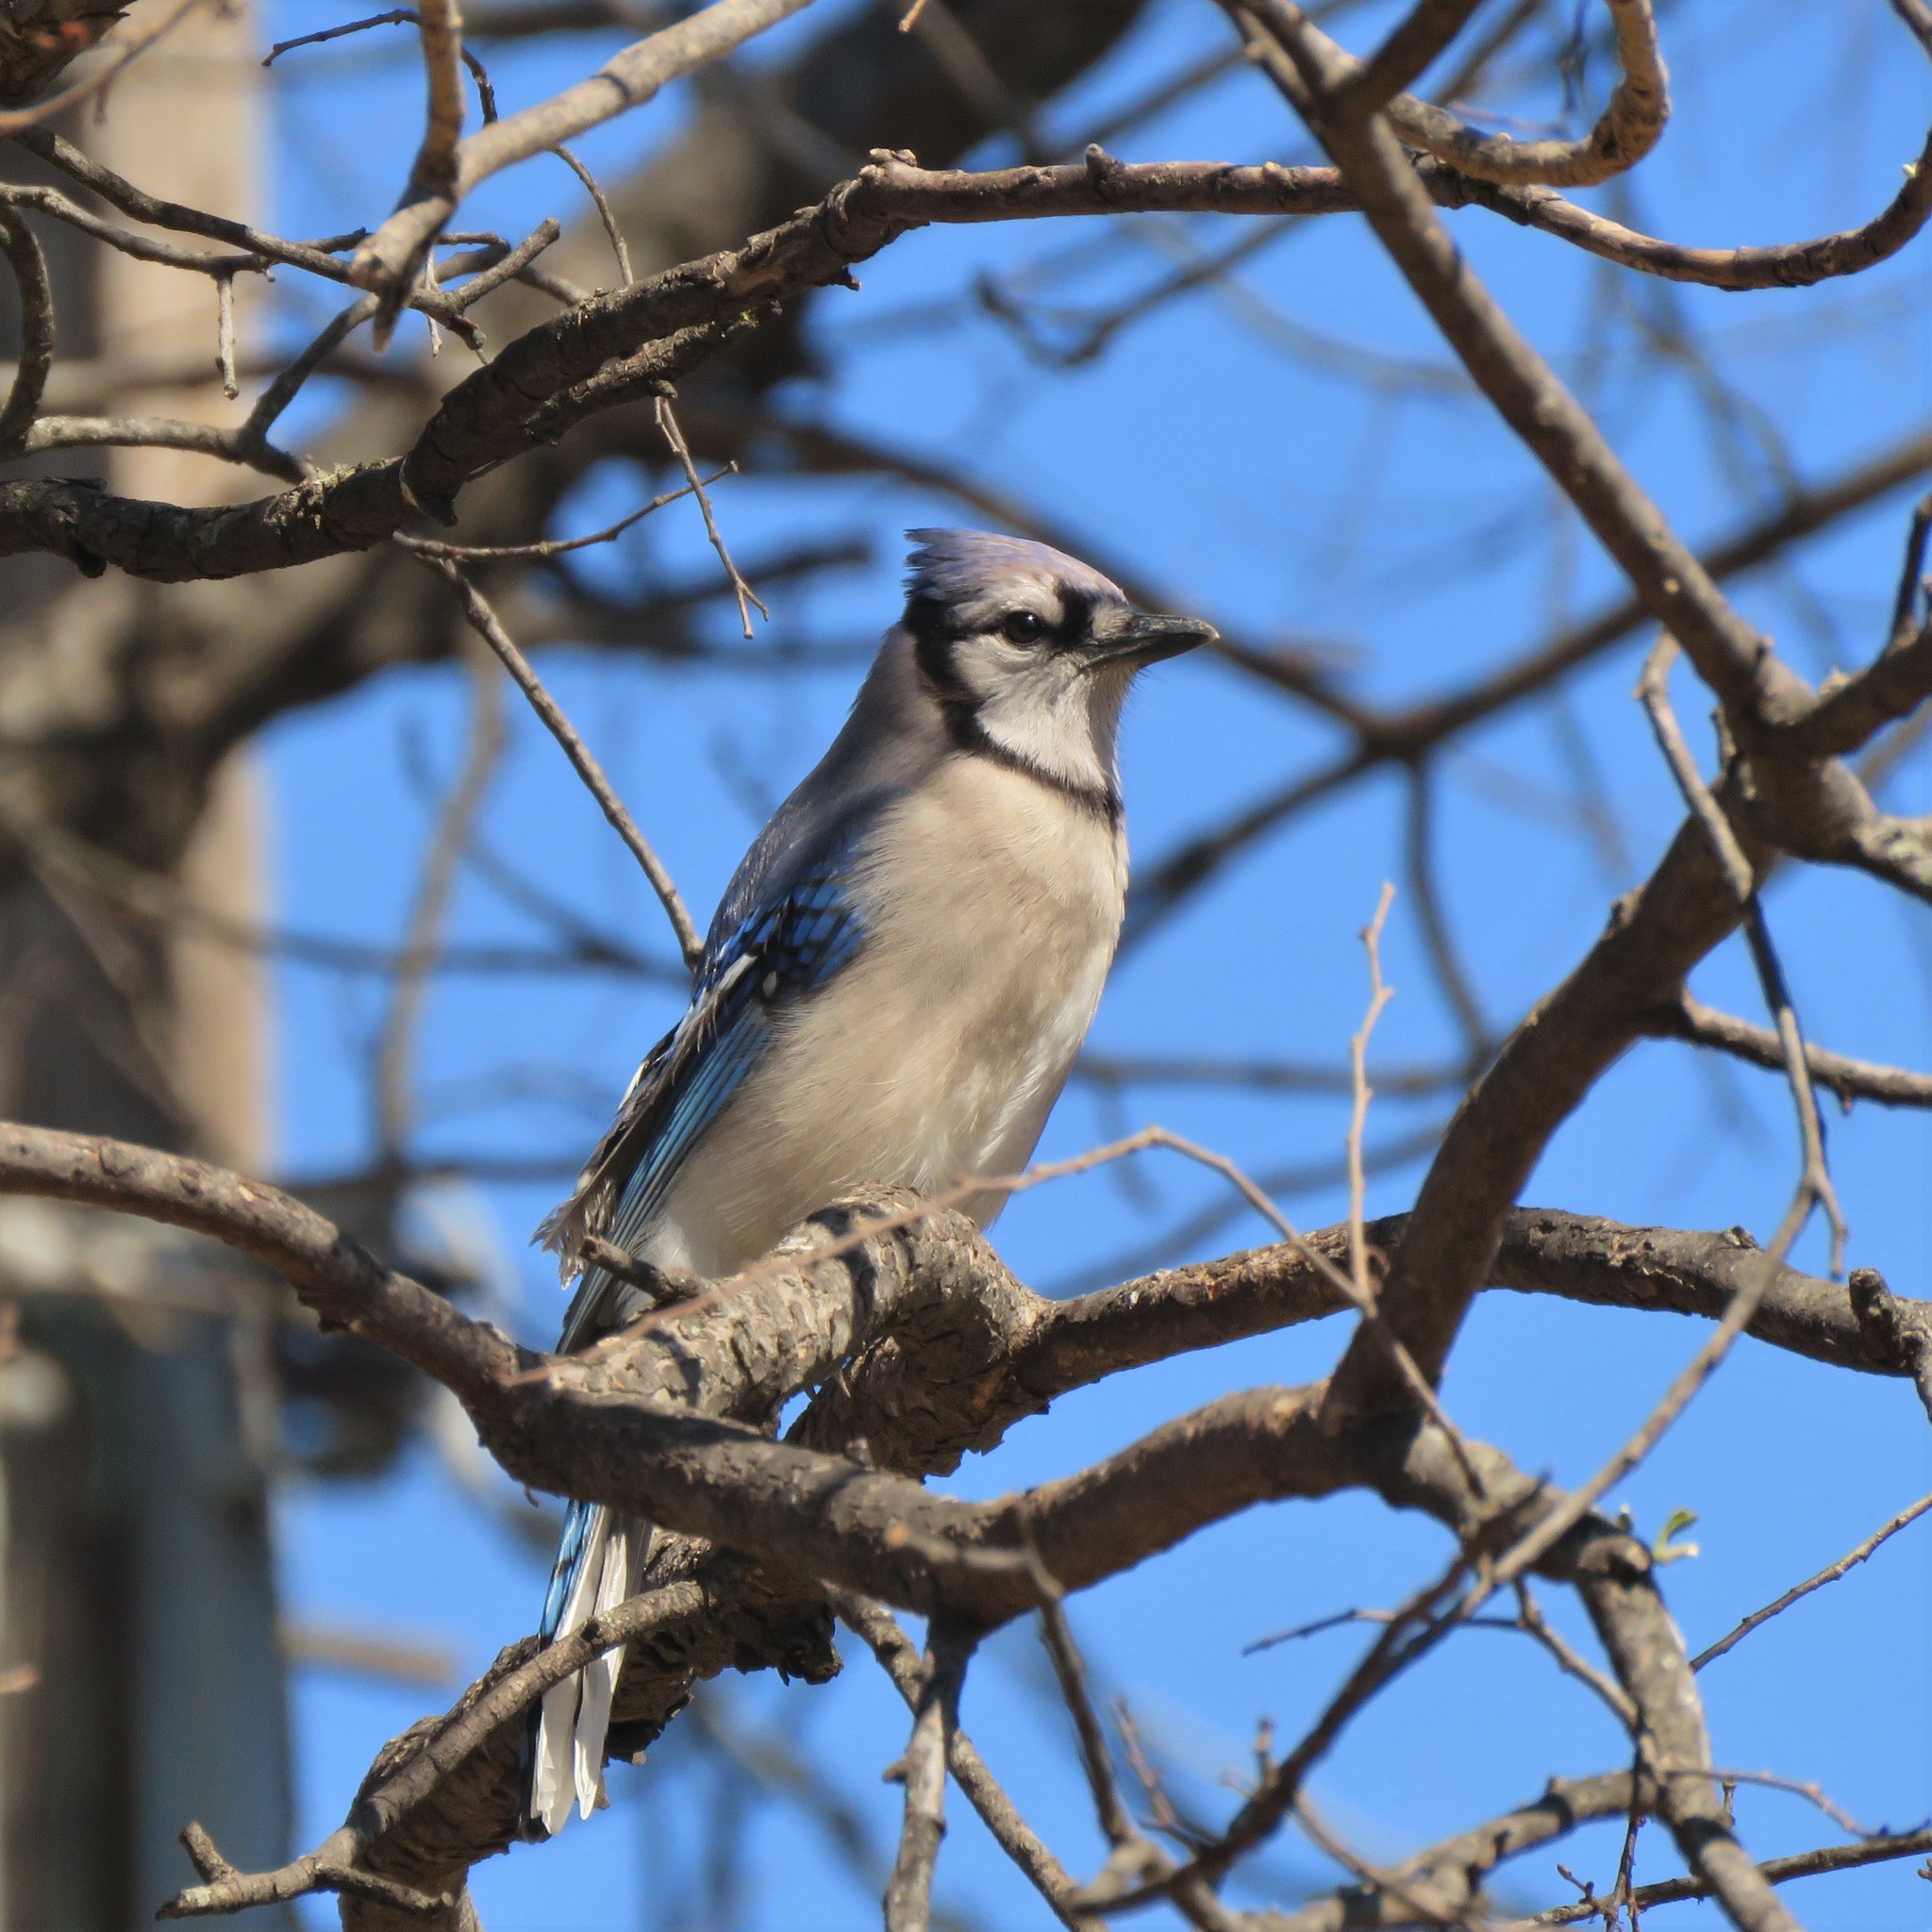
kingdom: Animalia
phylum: Chordata
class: Aves
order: Passeriformes
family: Corvidae
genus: Cyanocitta
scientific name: Cyanocitta cristata
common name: Blue jay
